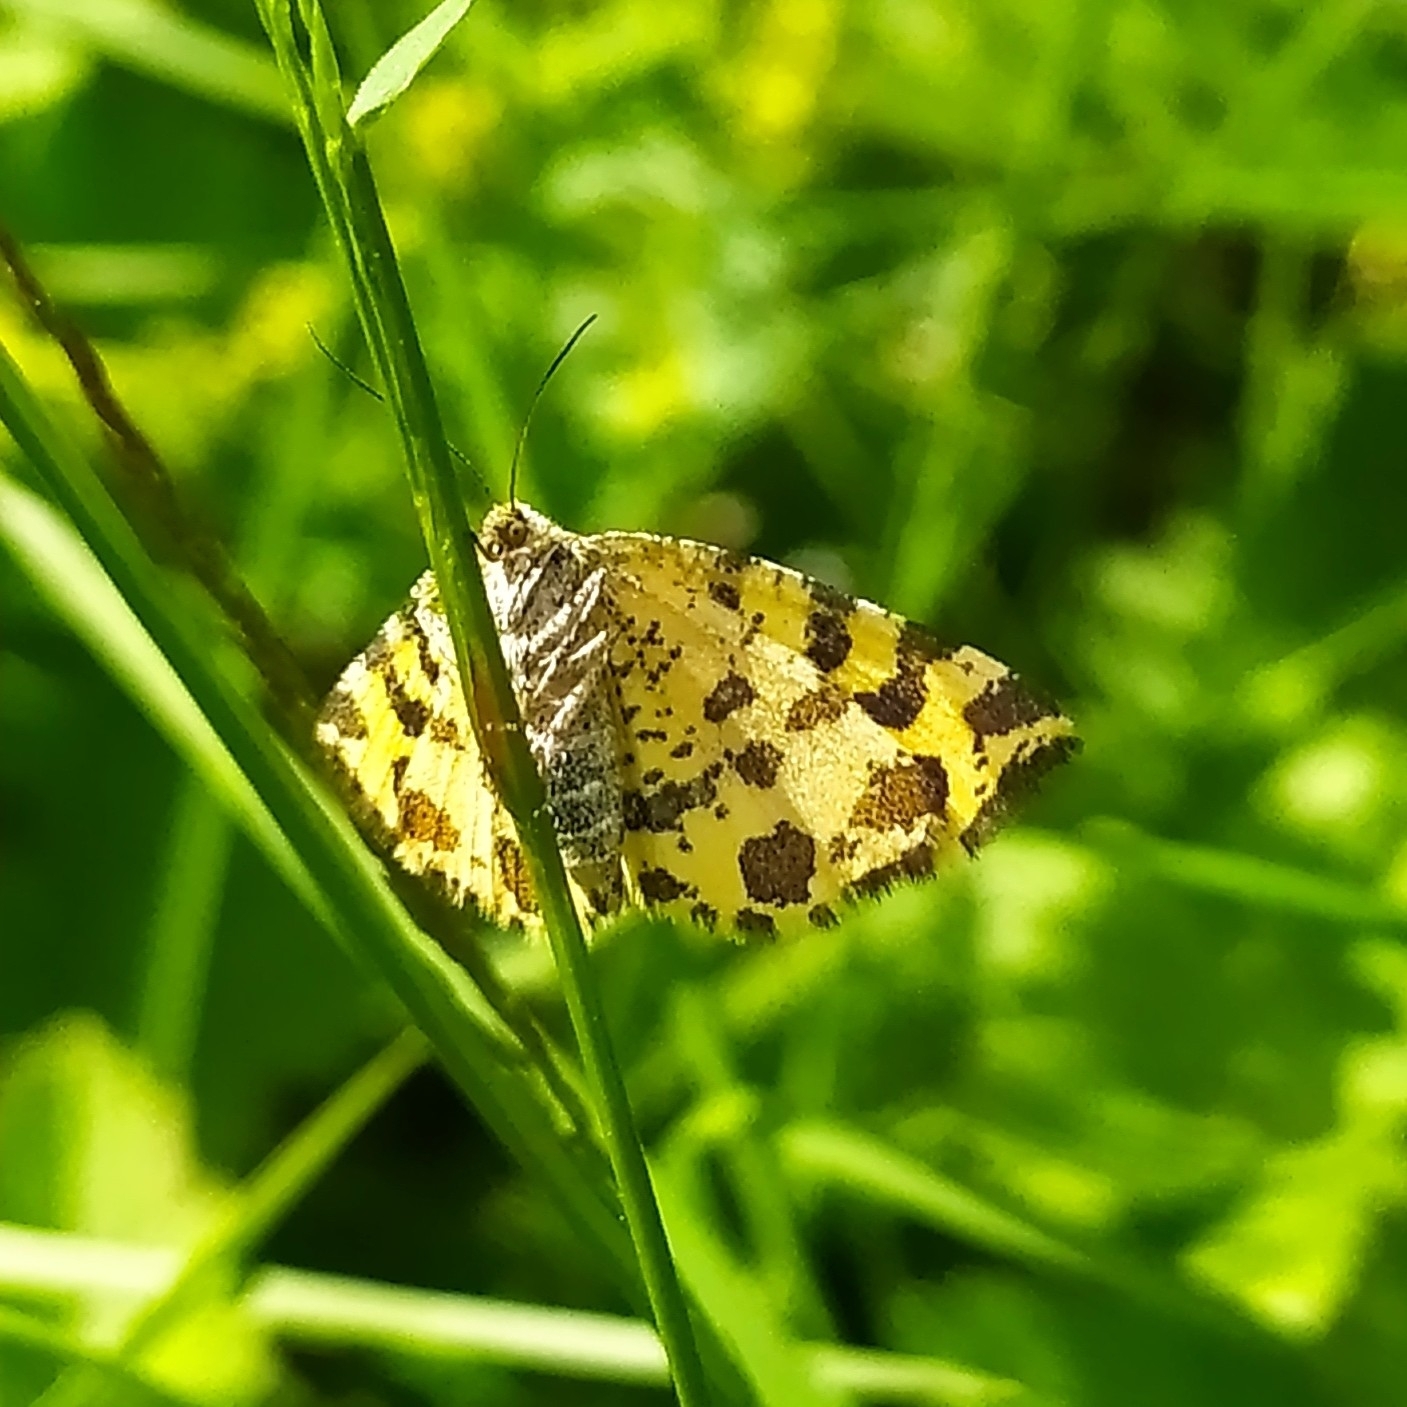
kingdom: Animalia
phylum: Arthropoda
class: Insecta
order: Lepidoptera
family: Geometridae
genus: Pseudopanthera
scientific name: Pseudopanthera macularia
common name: Speckled yellow
